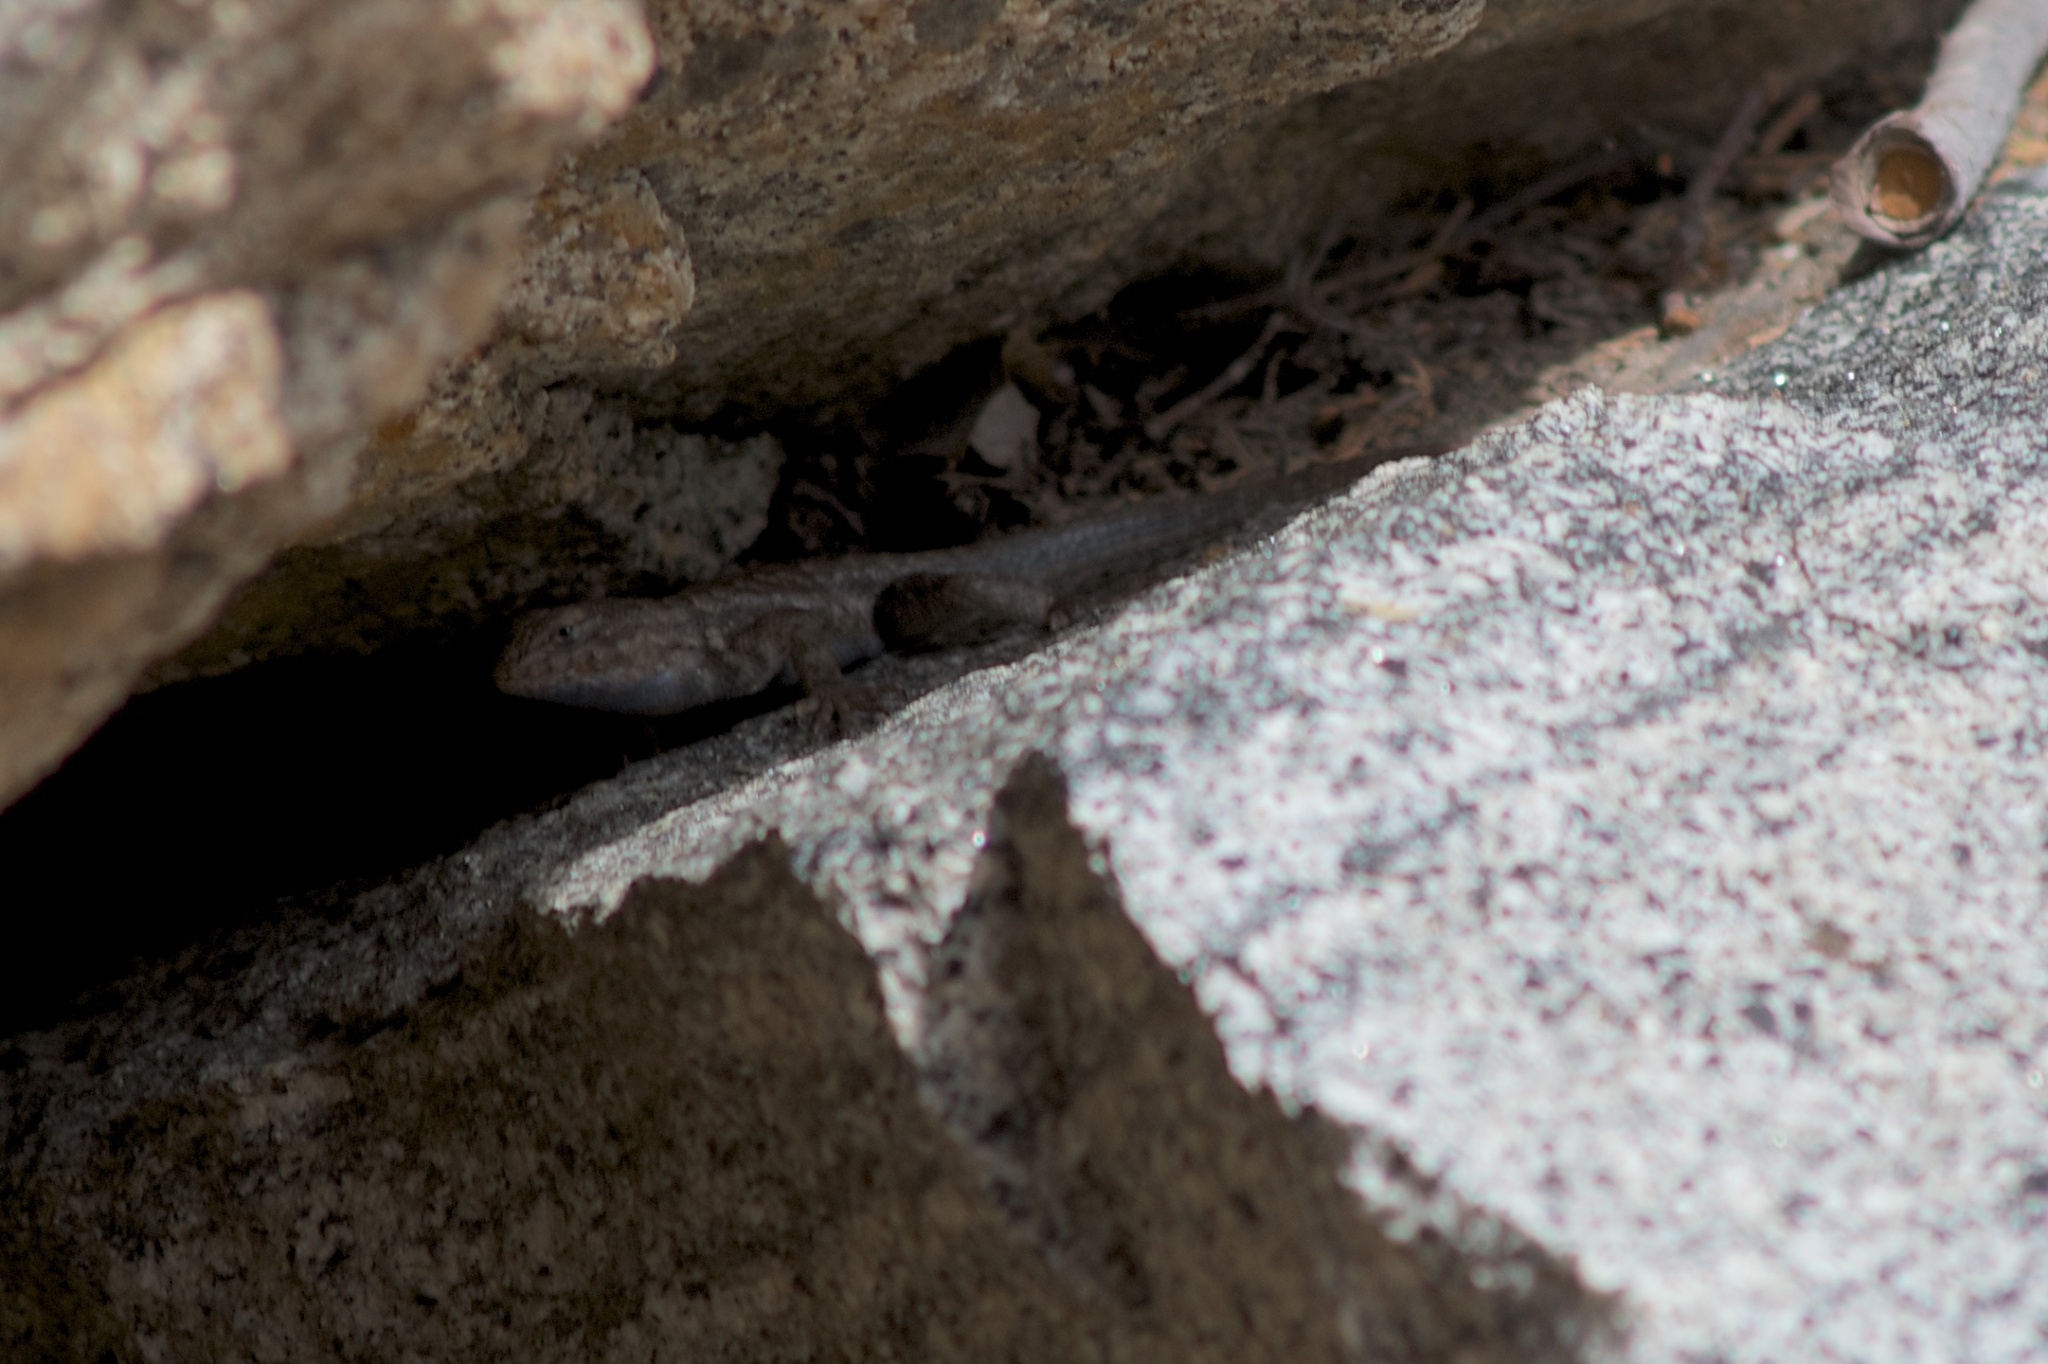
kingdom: Animalia
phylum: Chordata
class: Squamata
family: Phrynosomatidae
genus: Sceloporus
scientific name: Sceloporus graciosus
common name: Sagebrush lizard
